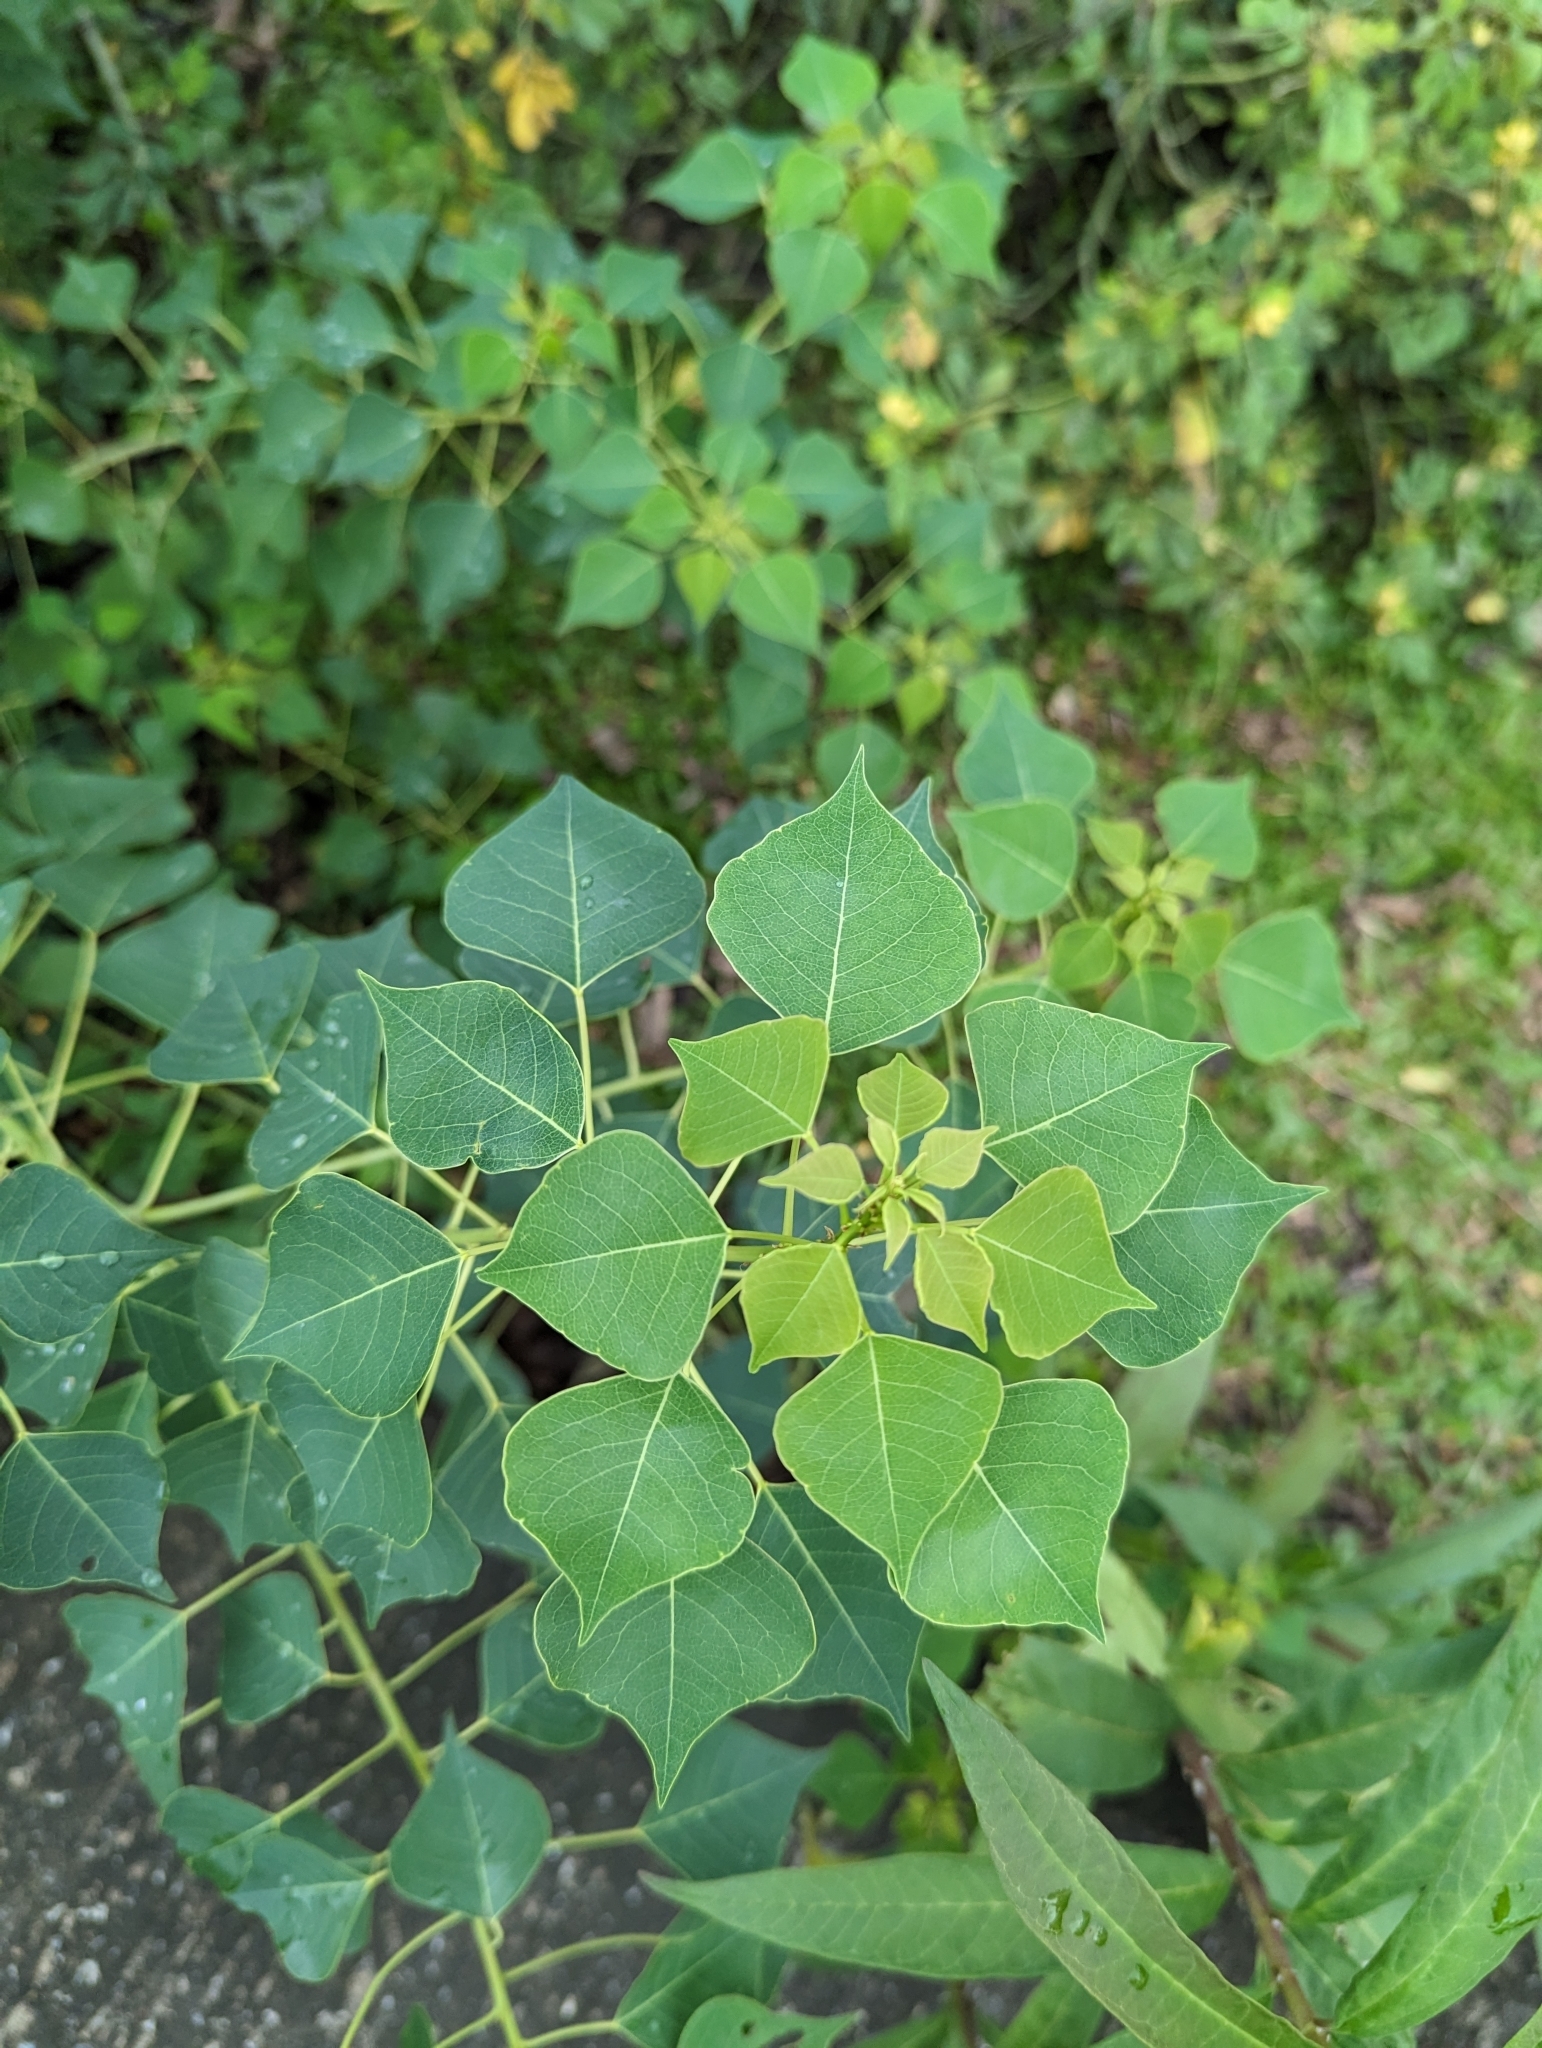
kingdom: Plantae
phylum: Tracheophyta
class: Magnoliopsida
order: Malpighiales
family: Euphorbiaceae
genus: Triadica
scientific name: Triadica sebifera
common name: Chinese tallow
